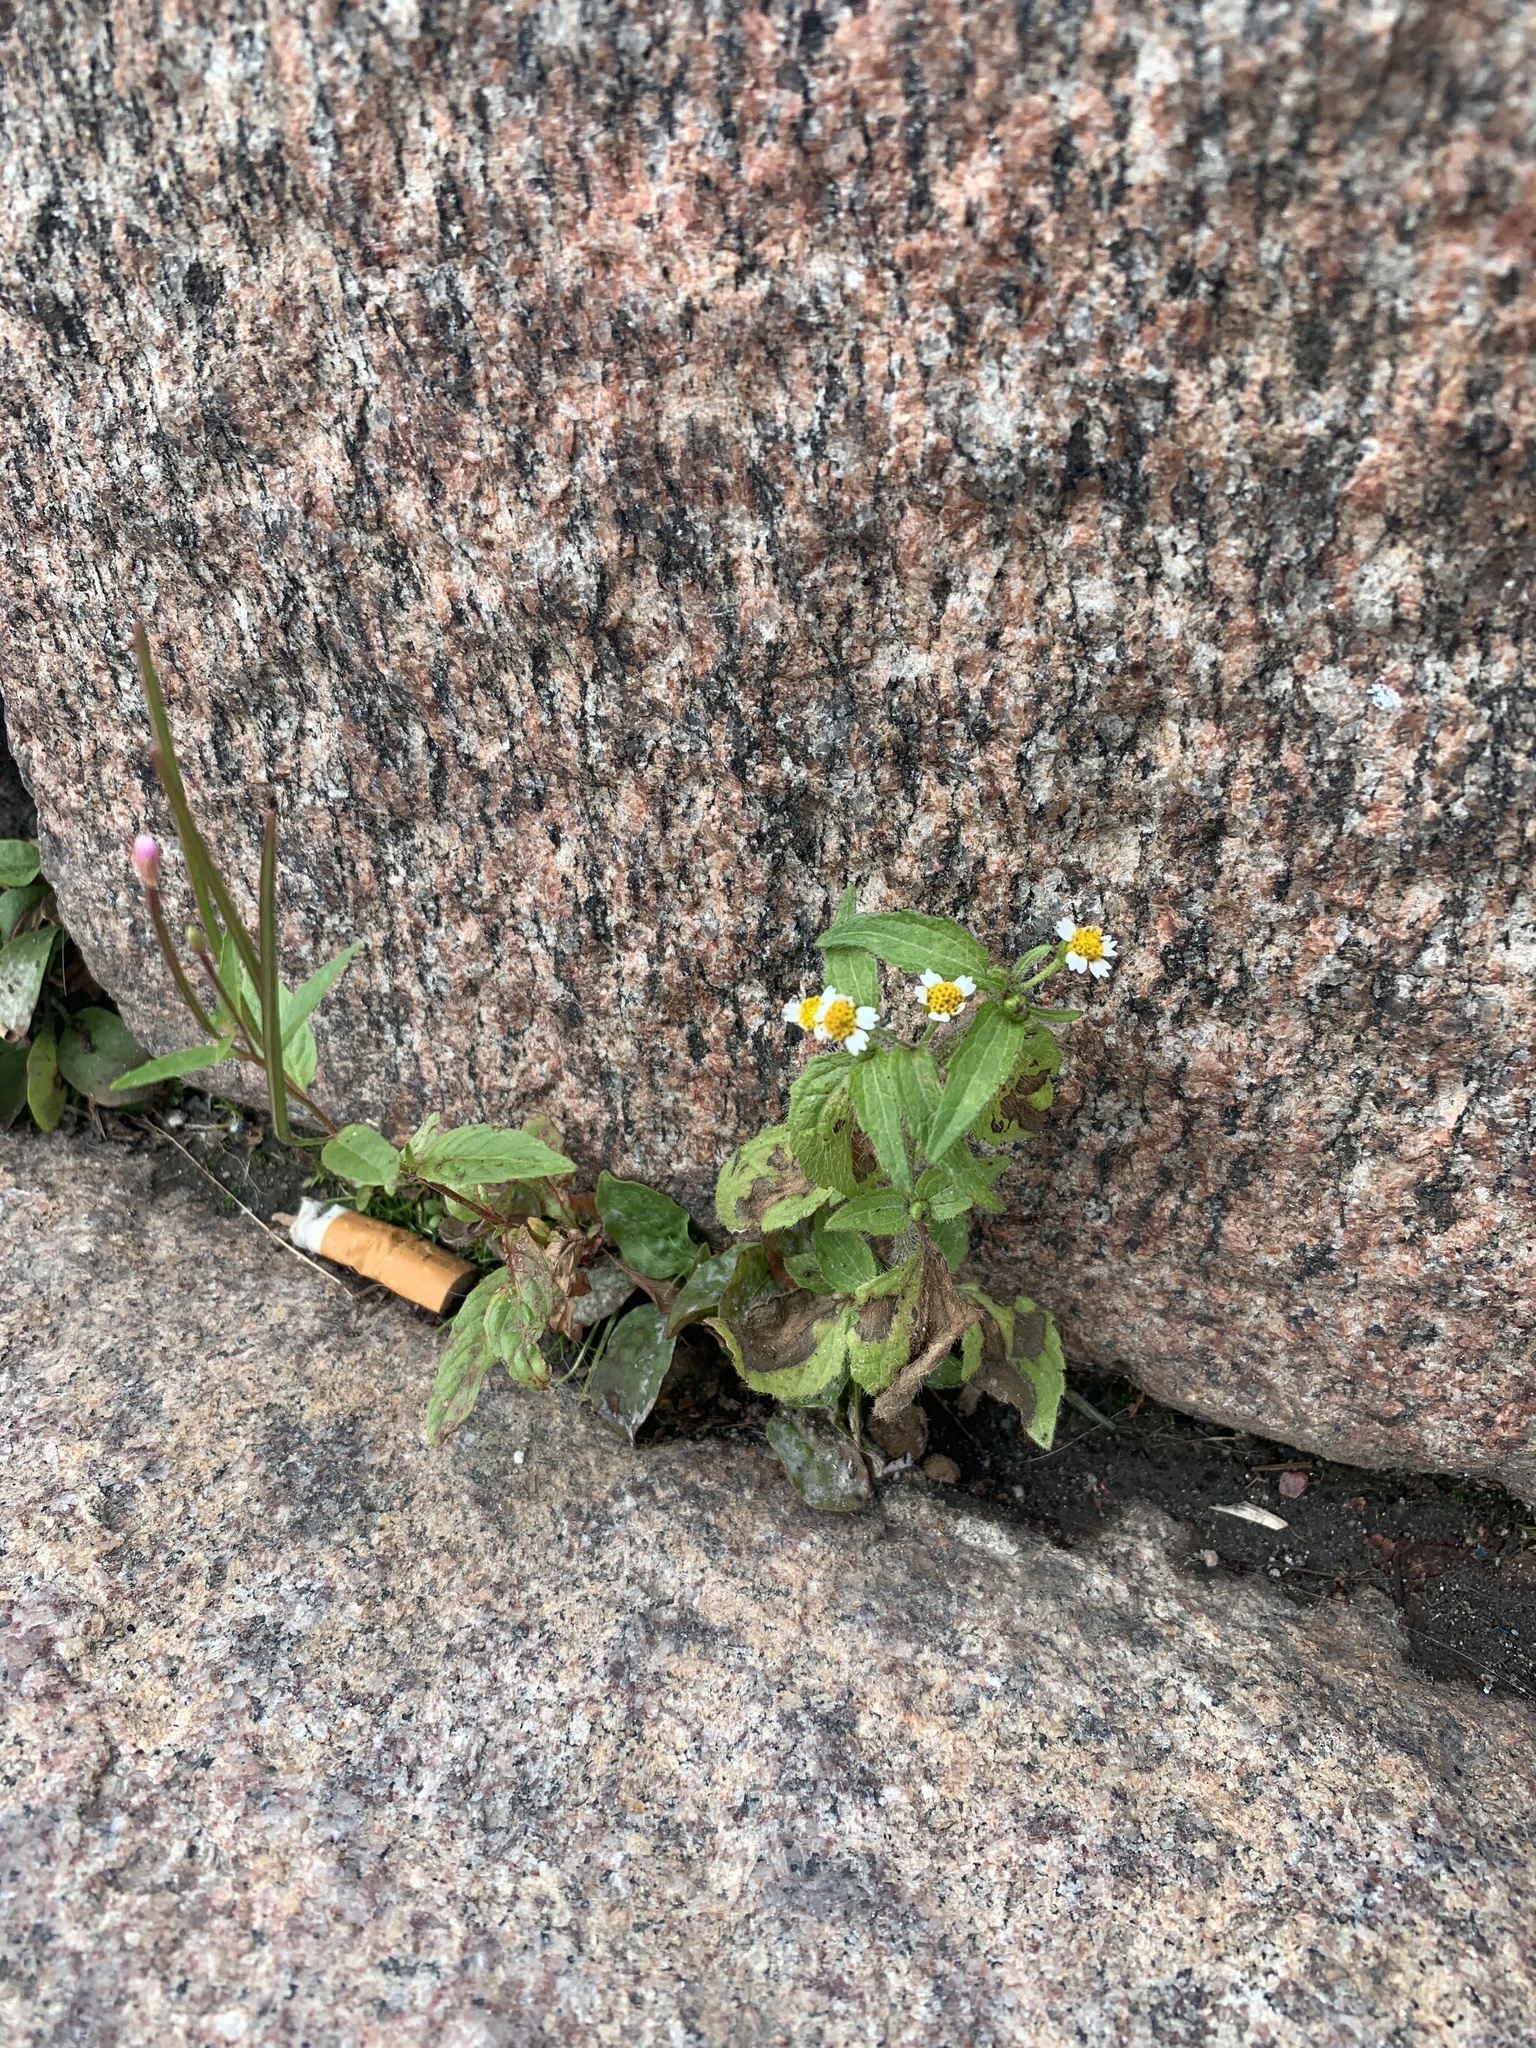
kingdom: Plantae
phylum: Tracheophyta
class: Magnoliopsida
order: Asterales
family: Asteraceae
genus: Galinsoga
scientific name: Galinsoga quadriradiata
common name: Shaggy soldier
